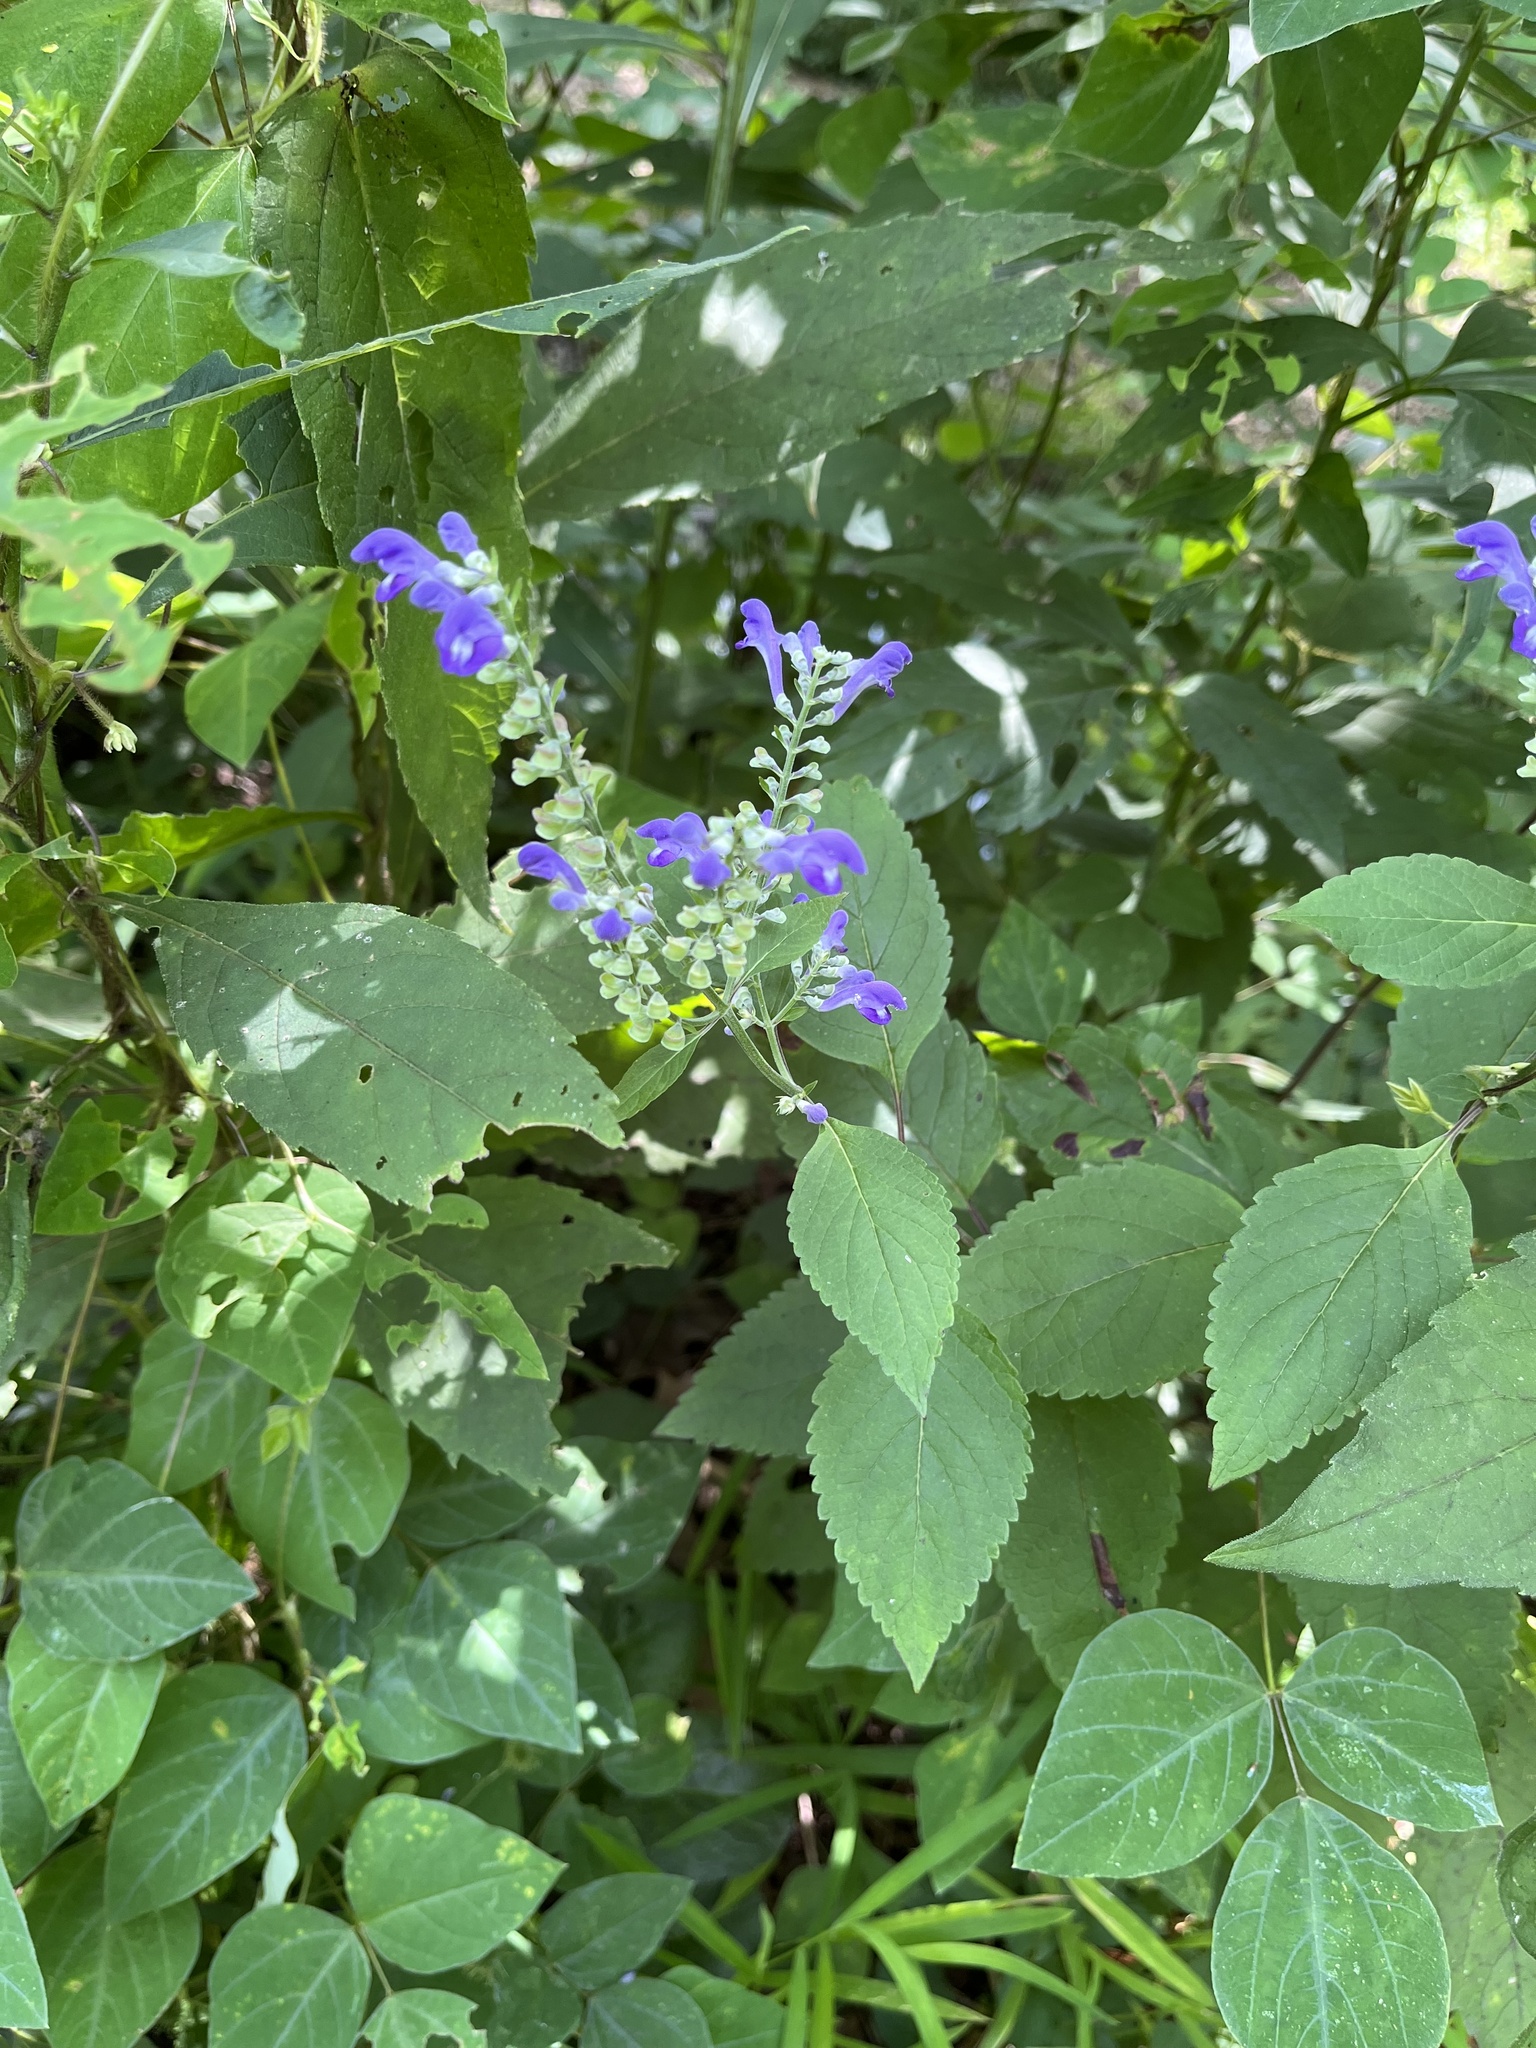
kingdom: Plantae
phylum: Tracheophyta
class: Magnoliopsida
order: Lamiales
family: Lamiaceae
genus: Scutellaria
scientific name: Scutellaria incana
